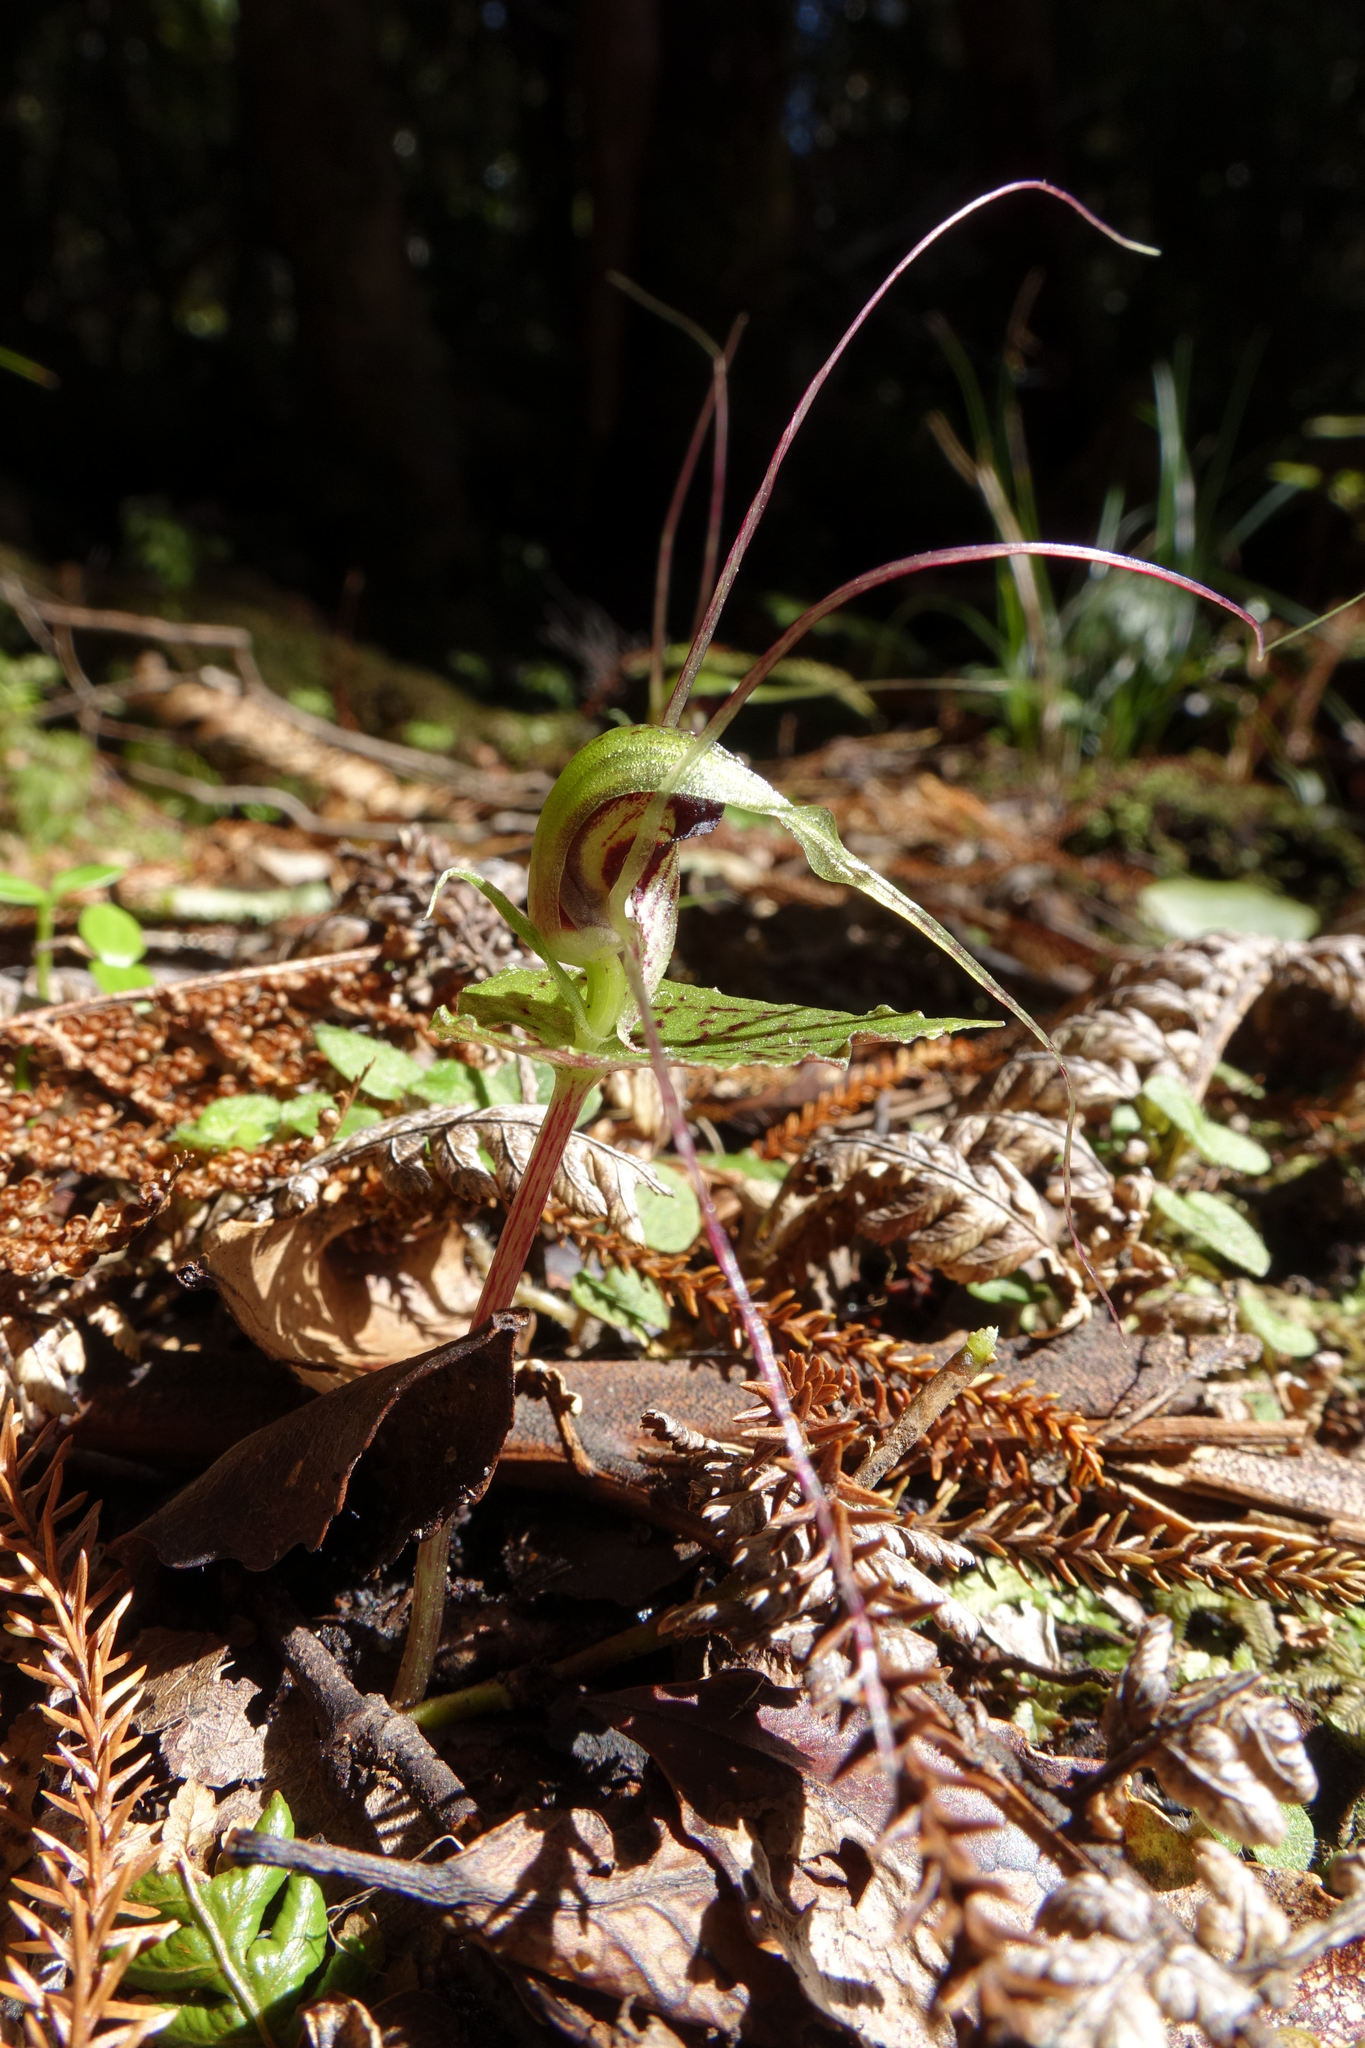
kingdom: Plantae
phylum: Tracheophyta
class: Liliopsida
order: Asparagales
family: Orchidaceae
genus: Corybas
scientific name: Corybas acuminatus
